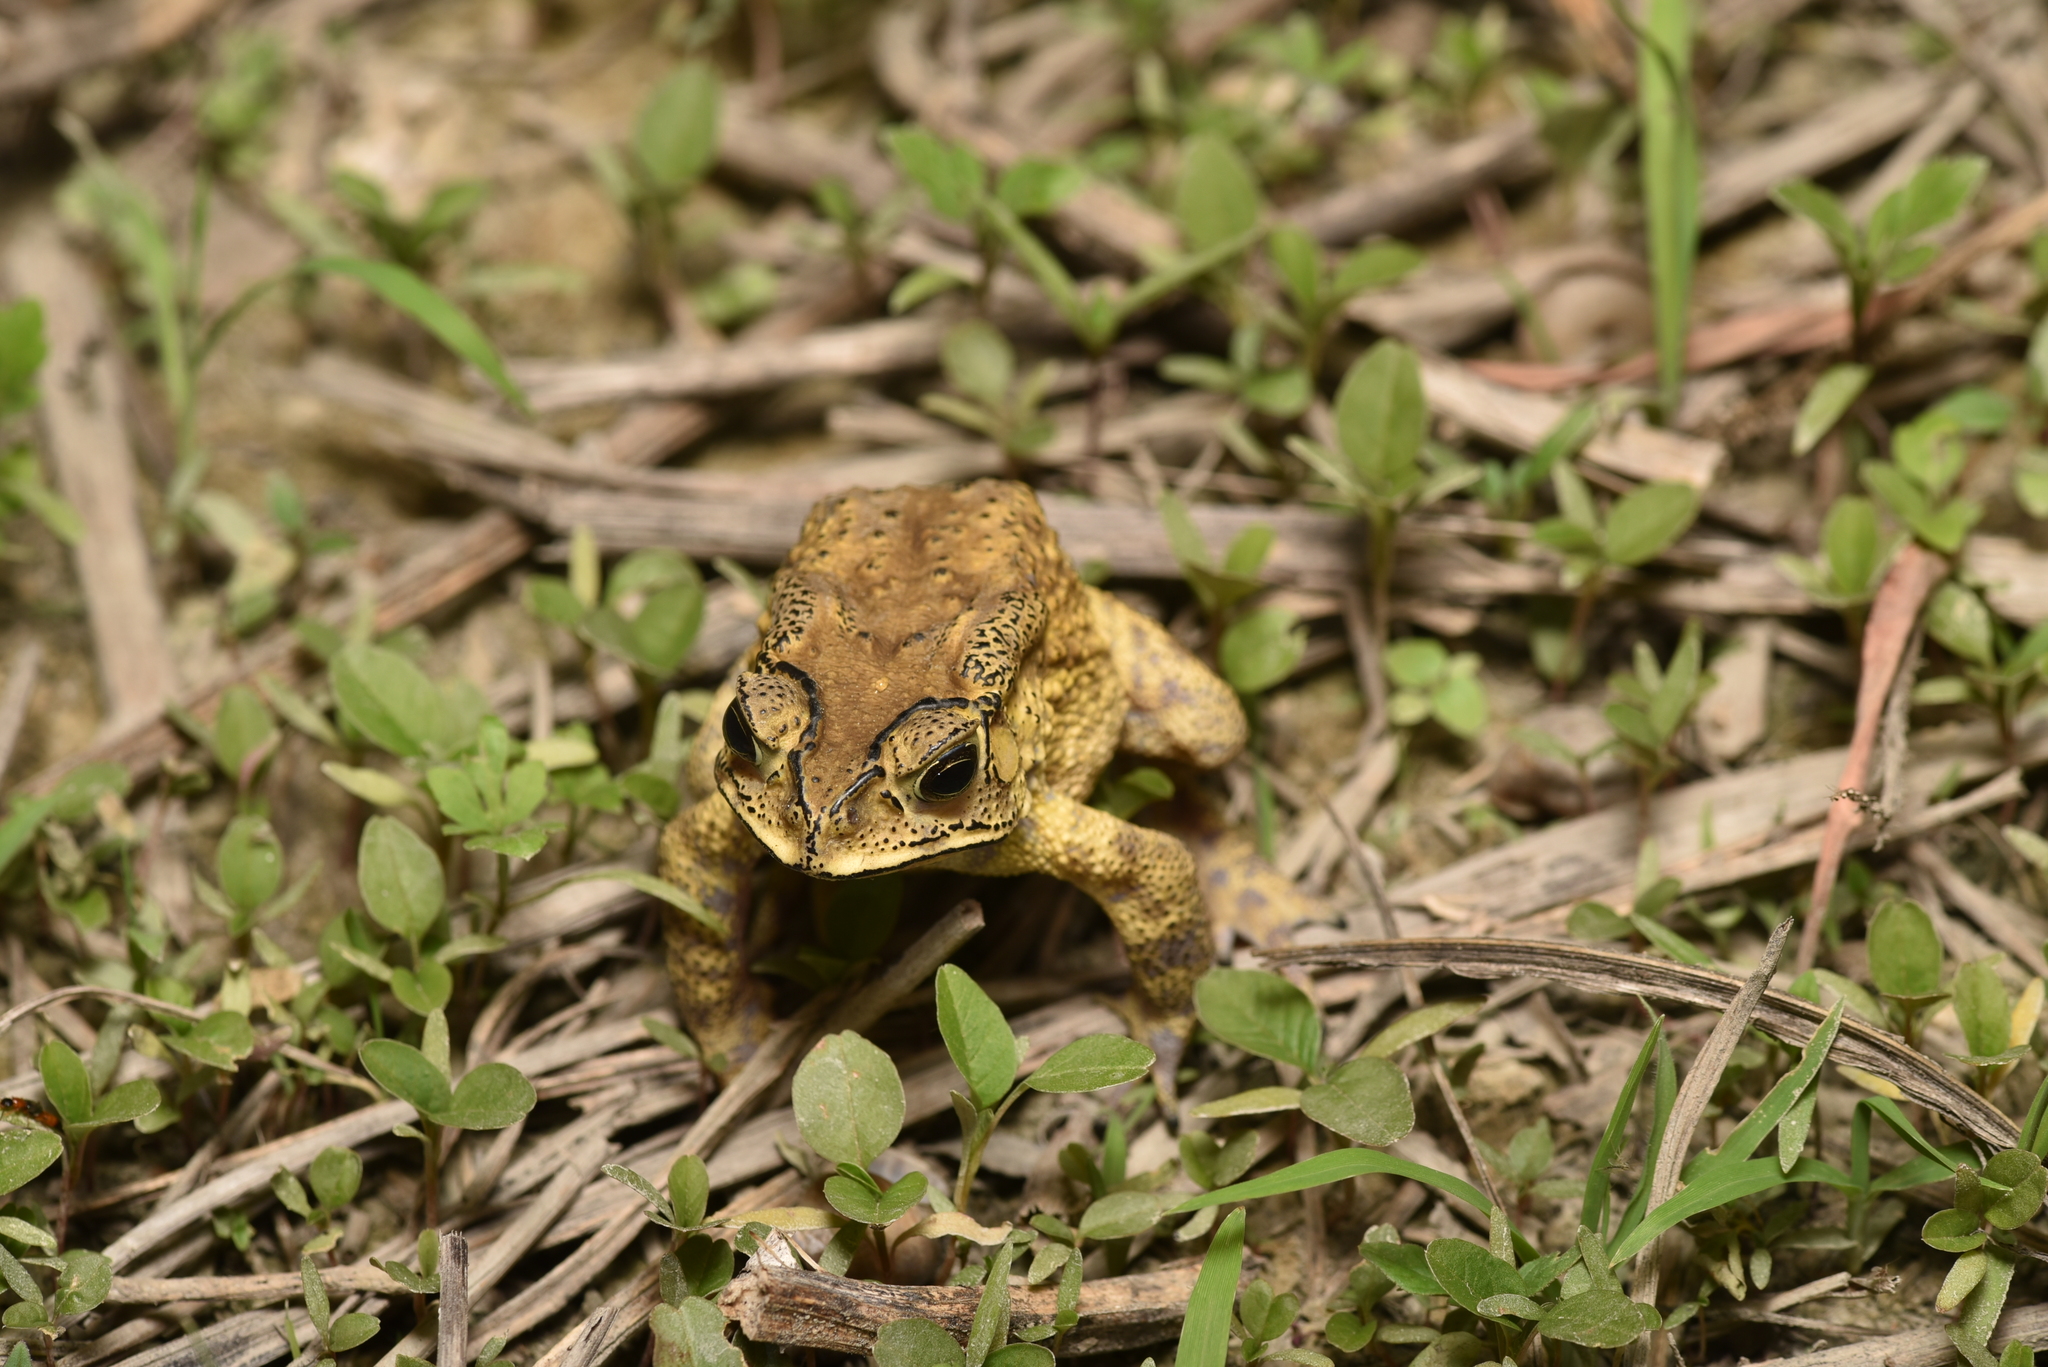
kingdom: Animalia
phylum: Chordata
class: Amphibia
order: Anura
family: Bufonidae
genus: Duttaphrynus
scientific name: Duttaphrynus melanostictus
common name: Common sunda toad
